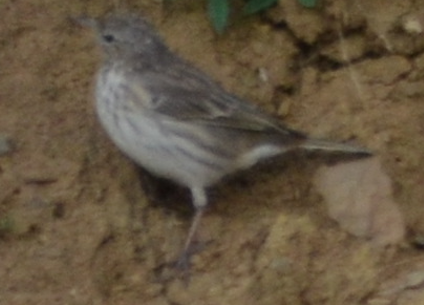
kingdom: Animalia
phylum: Chordata
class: Aves
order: Passeriformes
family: Motacillidae
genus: Anthus
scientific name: Anthus spinoletta
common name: Water pipit
